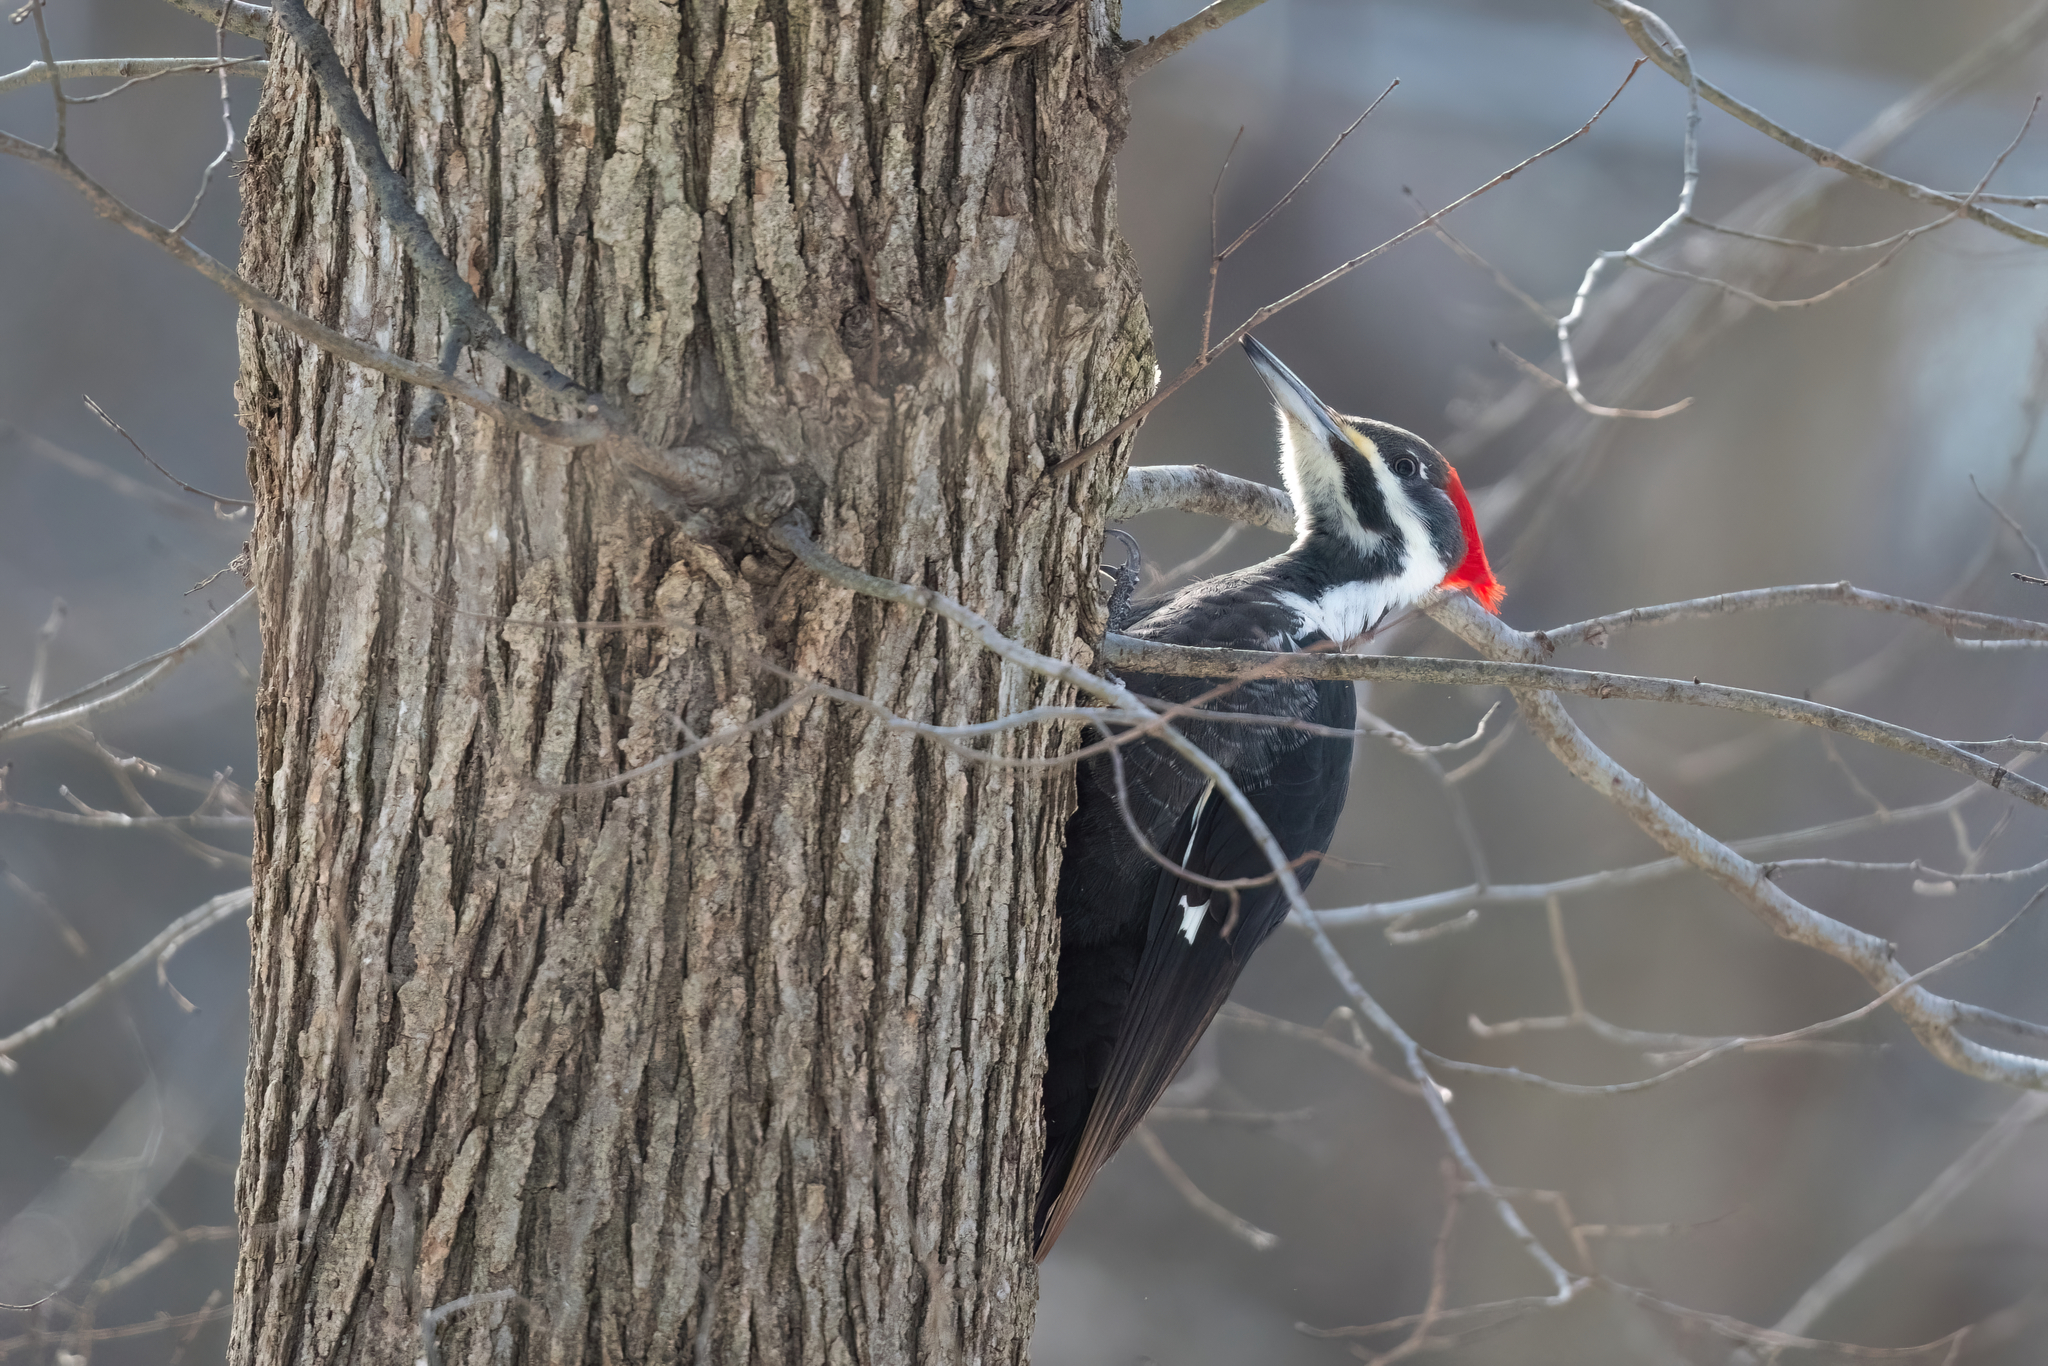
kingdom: Animalia
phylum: Chordata
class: Aves
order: Piciformes
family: Picidae
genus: Dryocopus
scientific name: Dryocopus pileatus
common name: Pileated woodpecker
